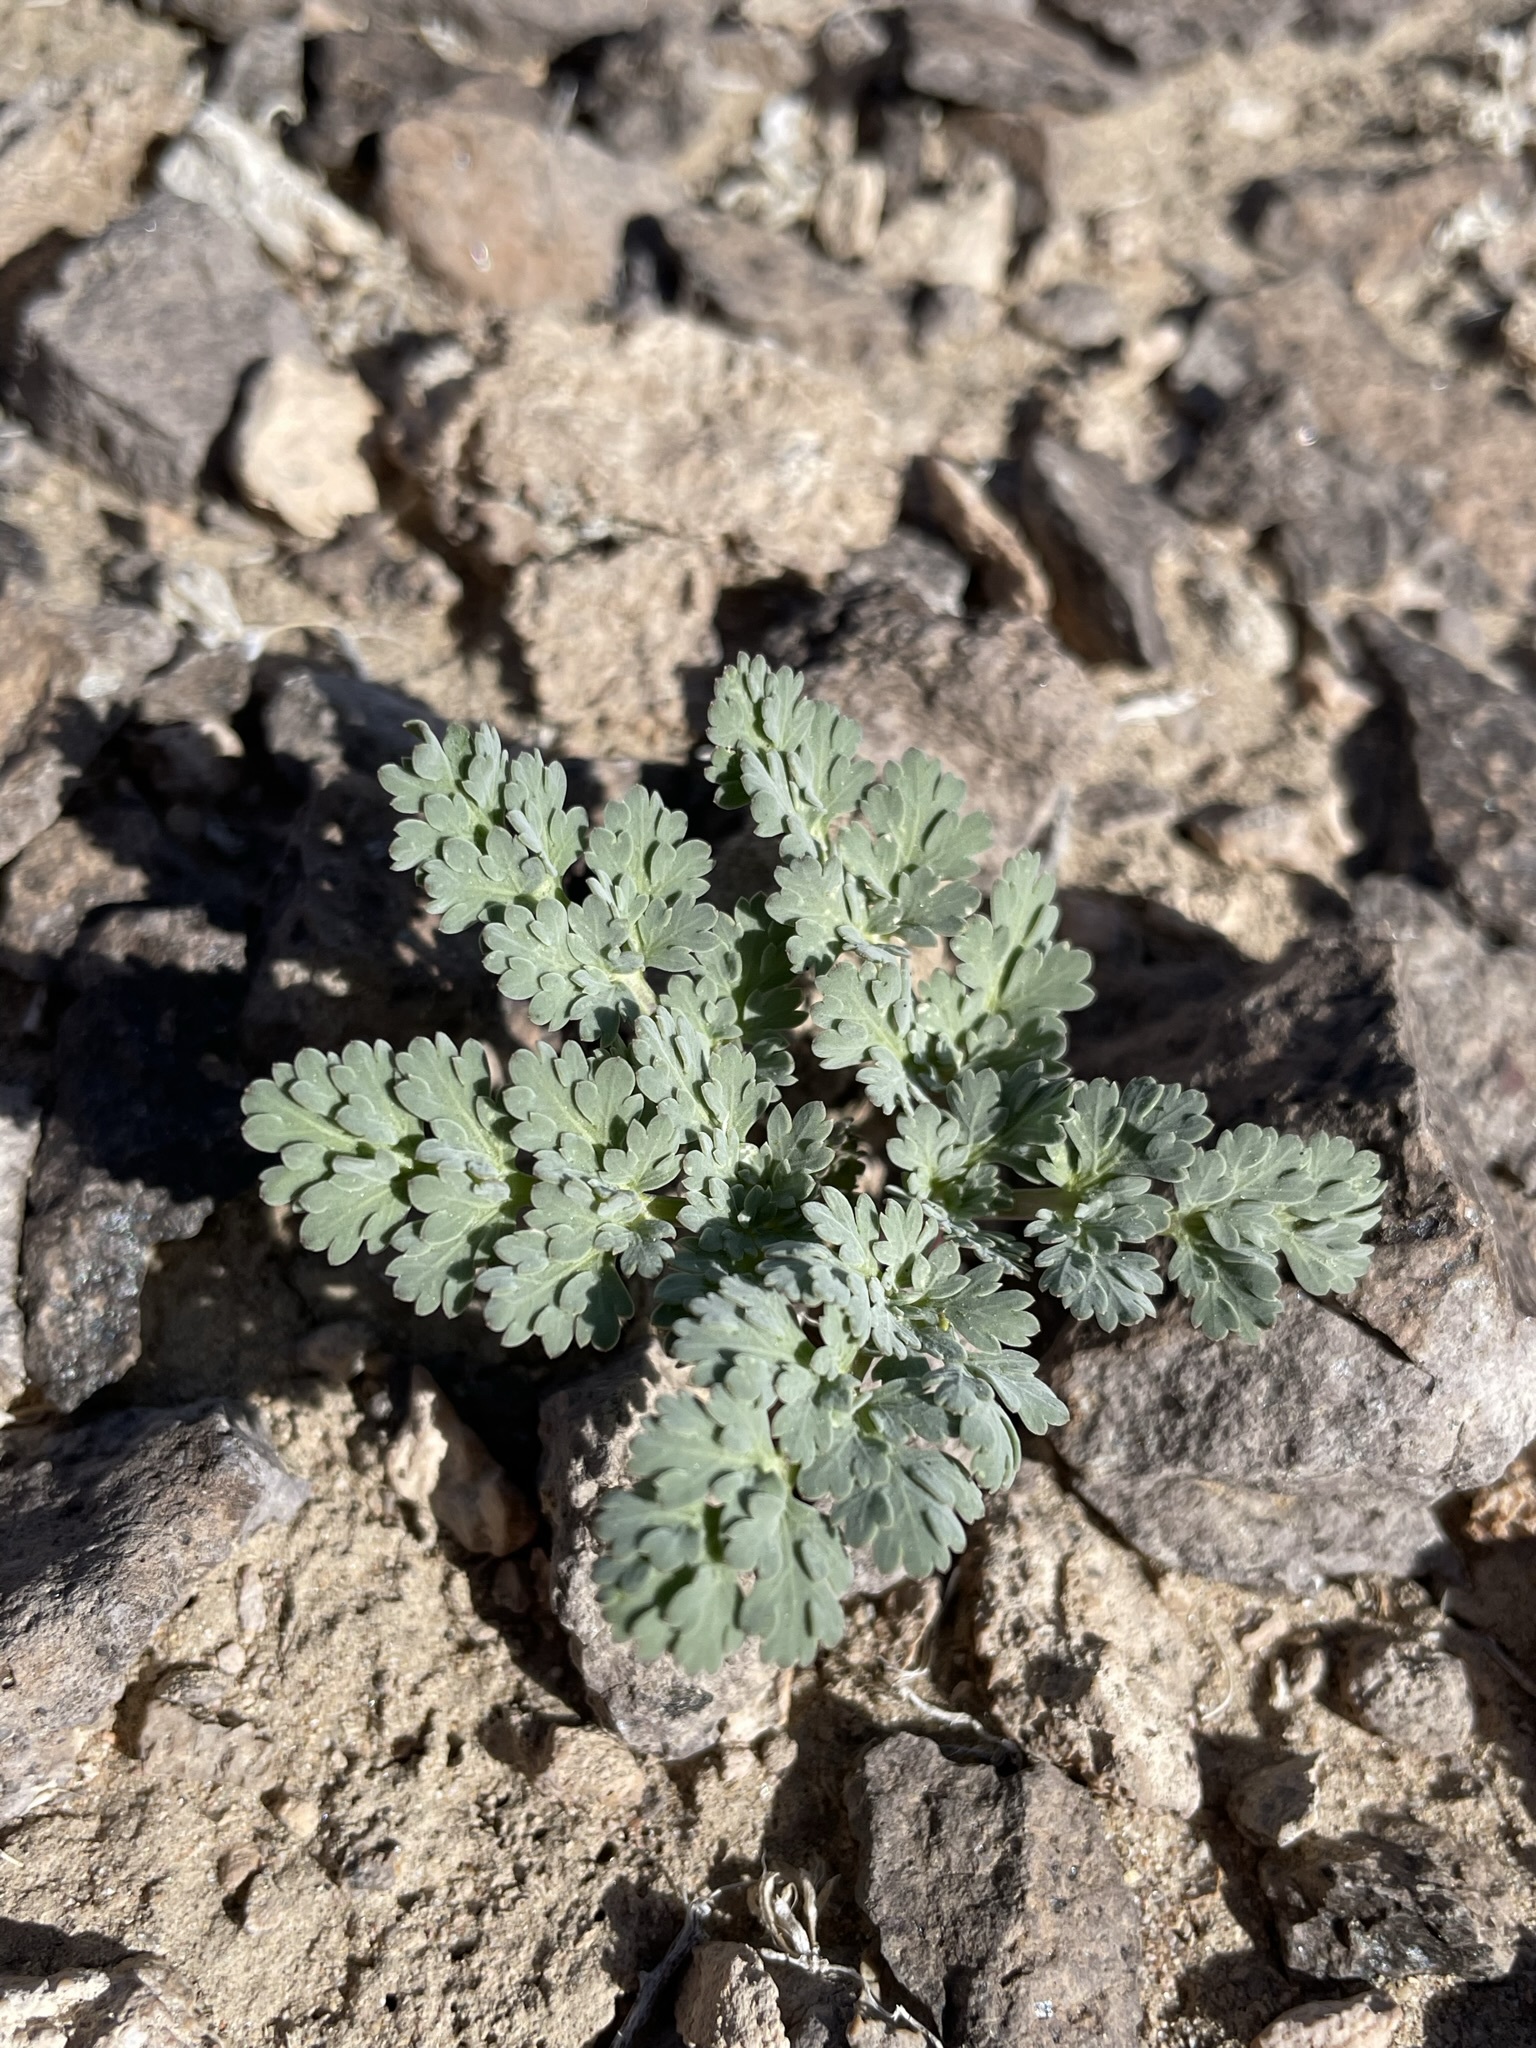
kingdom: Plantae
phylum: Tracheophyta
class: Magnoliopsida
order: Apiales
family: Apiaceae
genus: Cymopterus
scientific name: Cymopterus globosus
